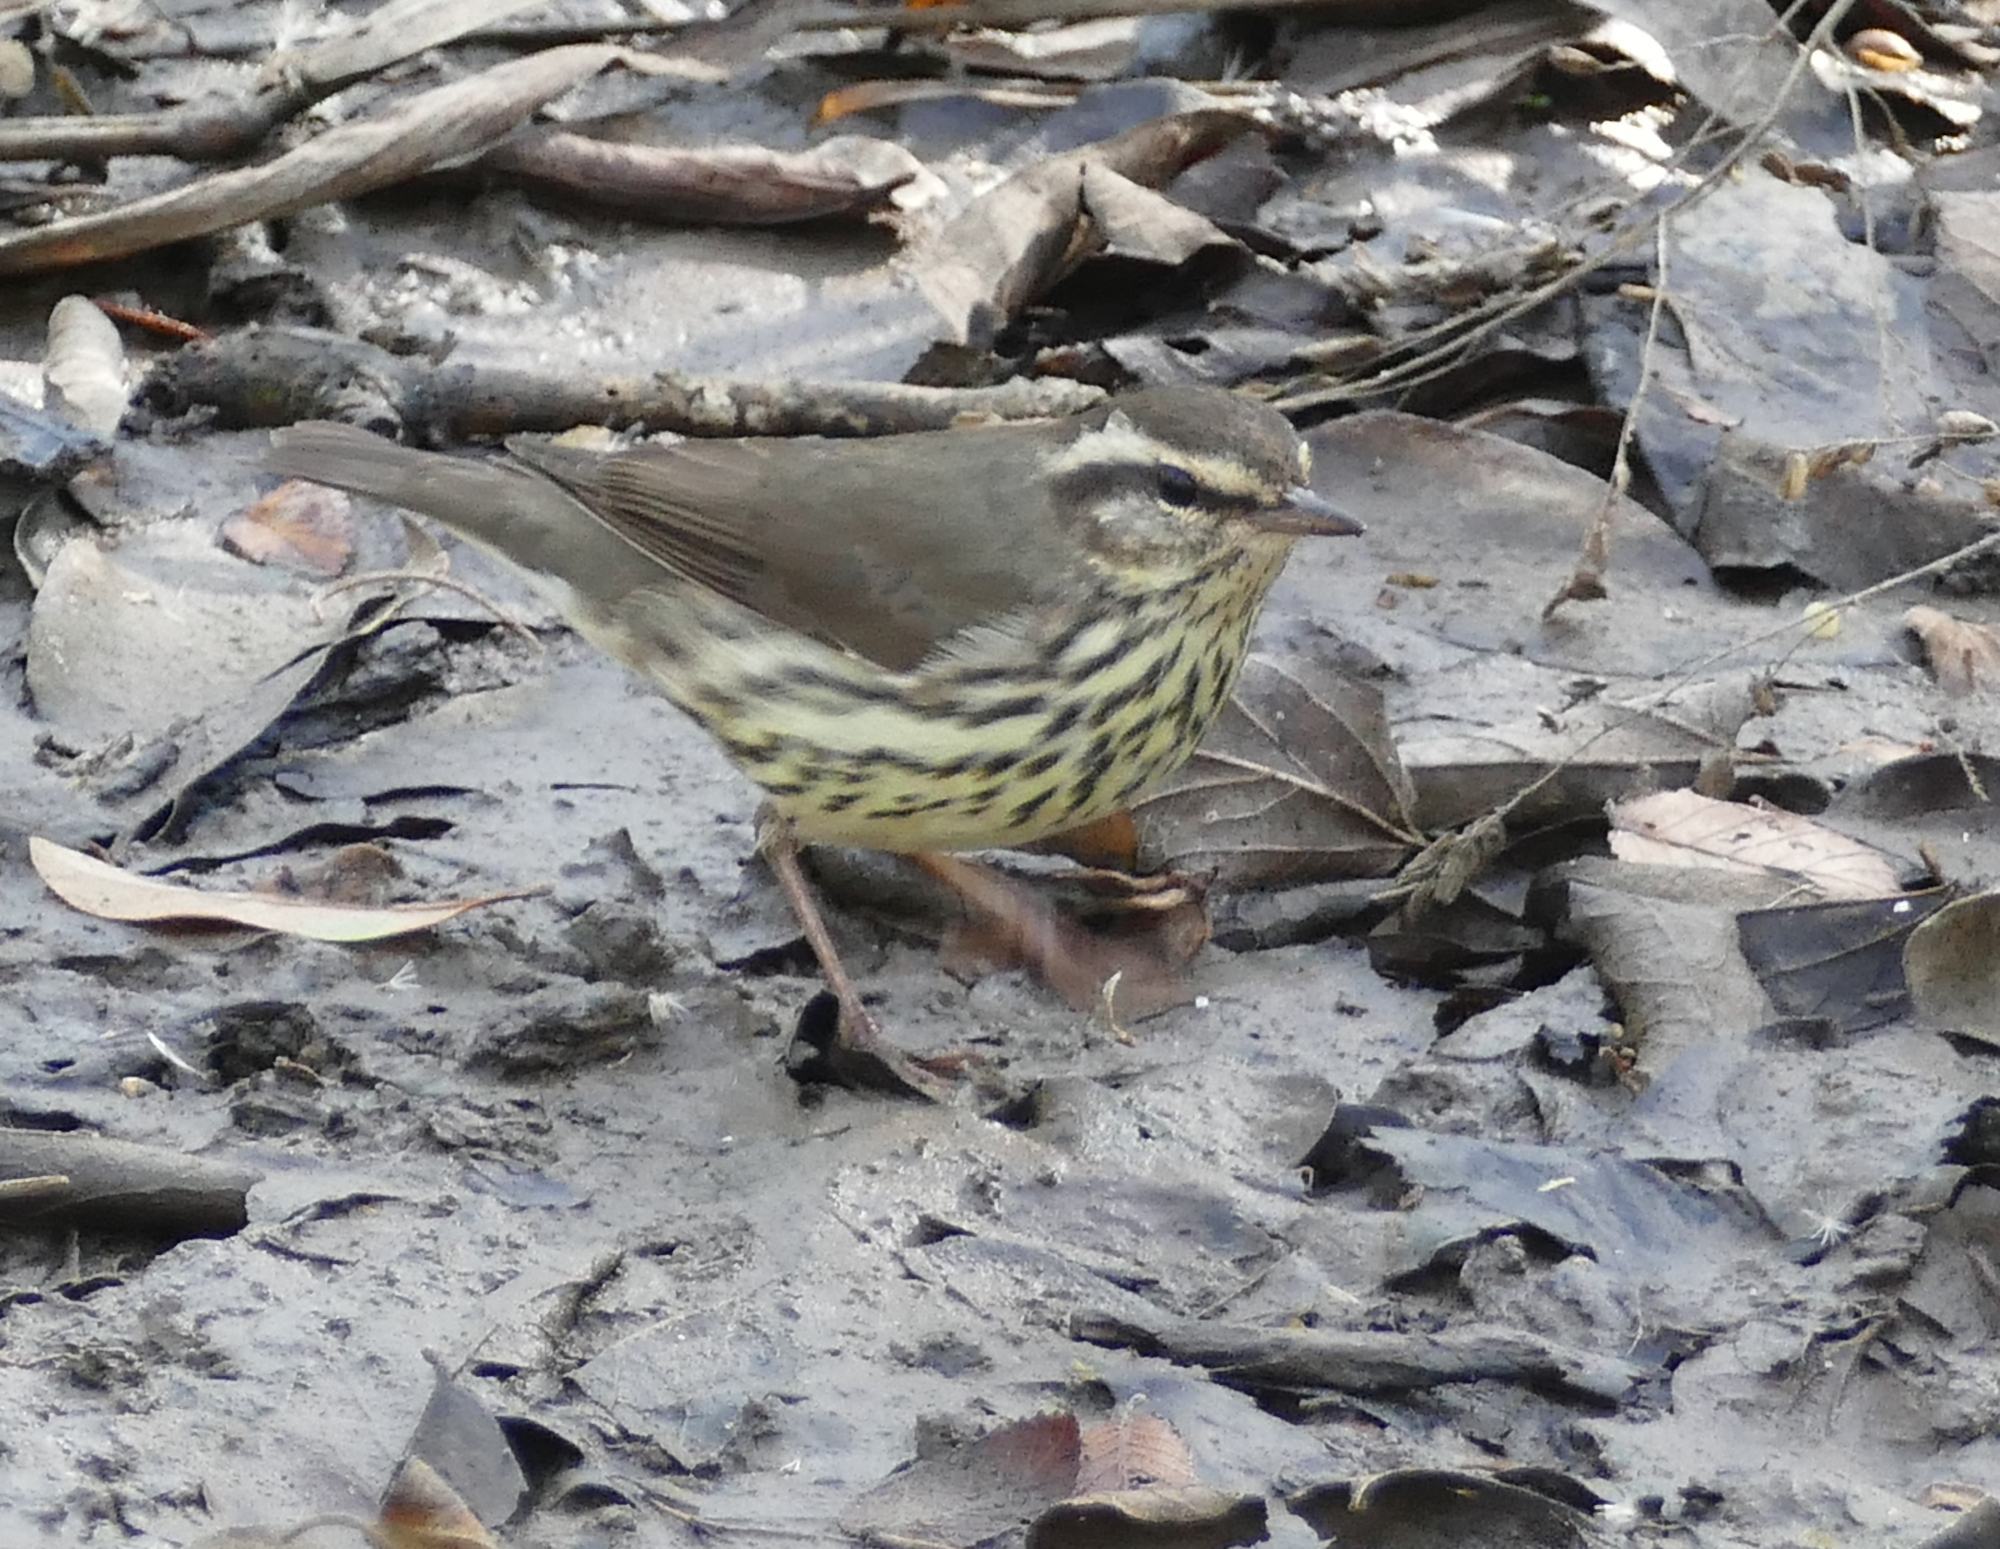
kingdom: Animalia
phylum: Chordata
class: Aves
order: Passeriformes
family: Parulidae
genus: Parkesia
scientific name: Parkesia noveboracensis
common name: Northern waterthrush
